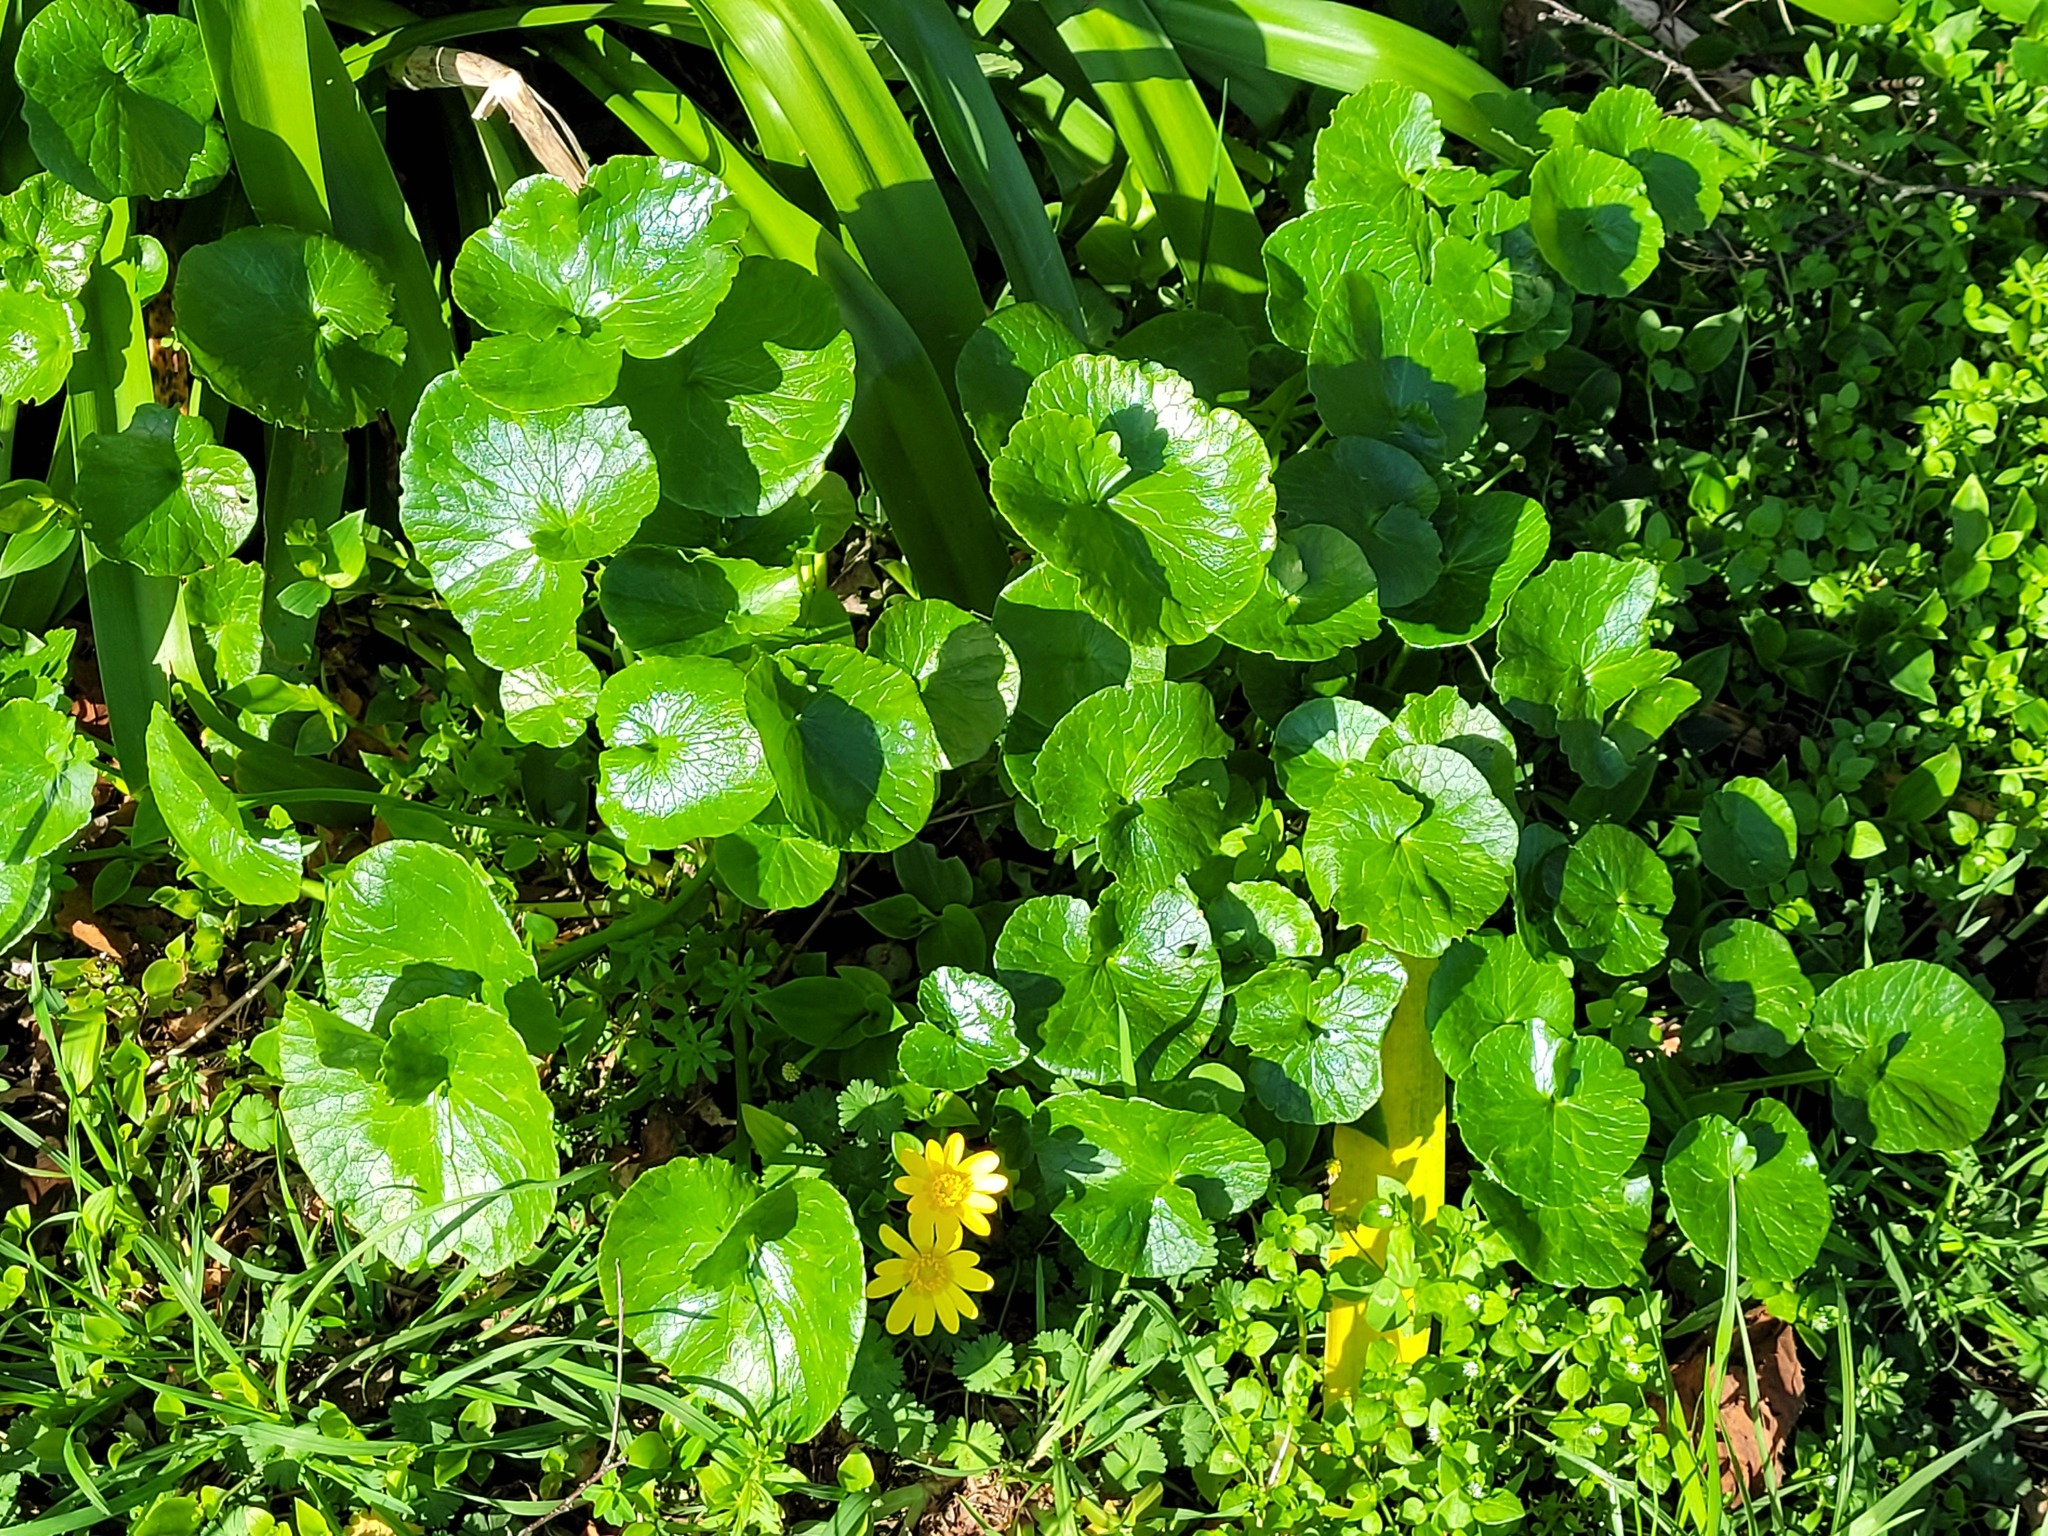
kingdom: Plantae
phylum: Tracheophyta
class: Magnoliopsida
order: Ranunculales
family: Ranunculaceae
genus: Ficaria
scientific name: Ficaria verna
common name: Lesser celandine
